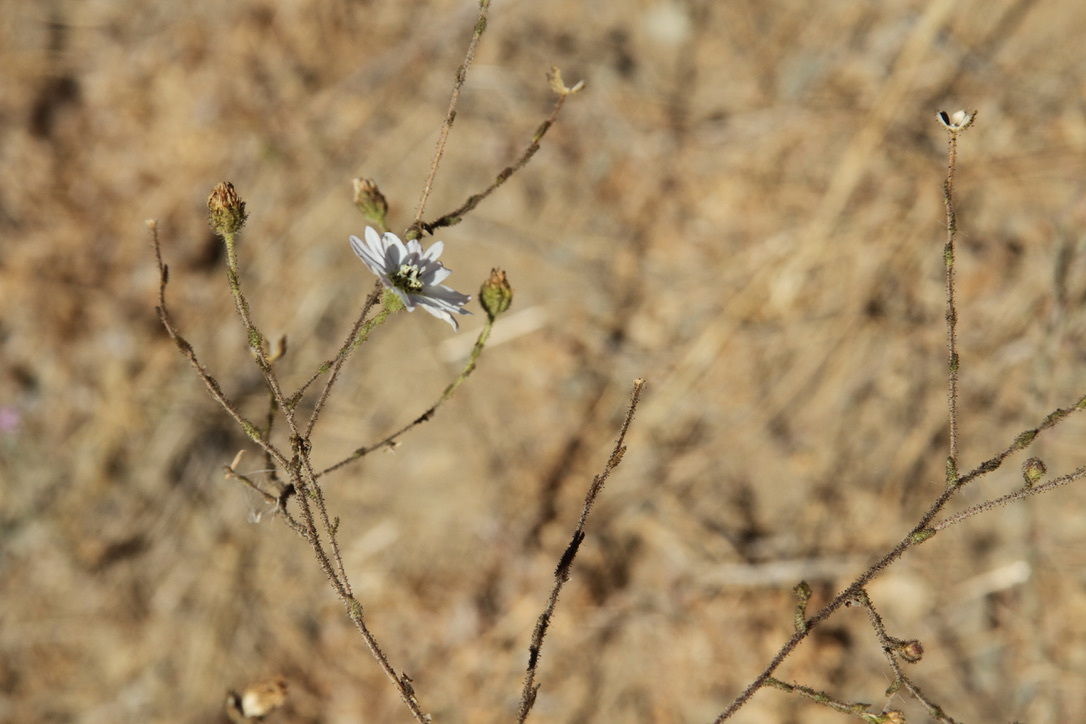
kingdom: Plantae
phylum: Tracheophyta
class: Magnoliopsida
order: Asterales
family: Asteraceae
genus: Hemizonia
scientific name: Hemizonia congesta
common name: Hayfield tarweed
